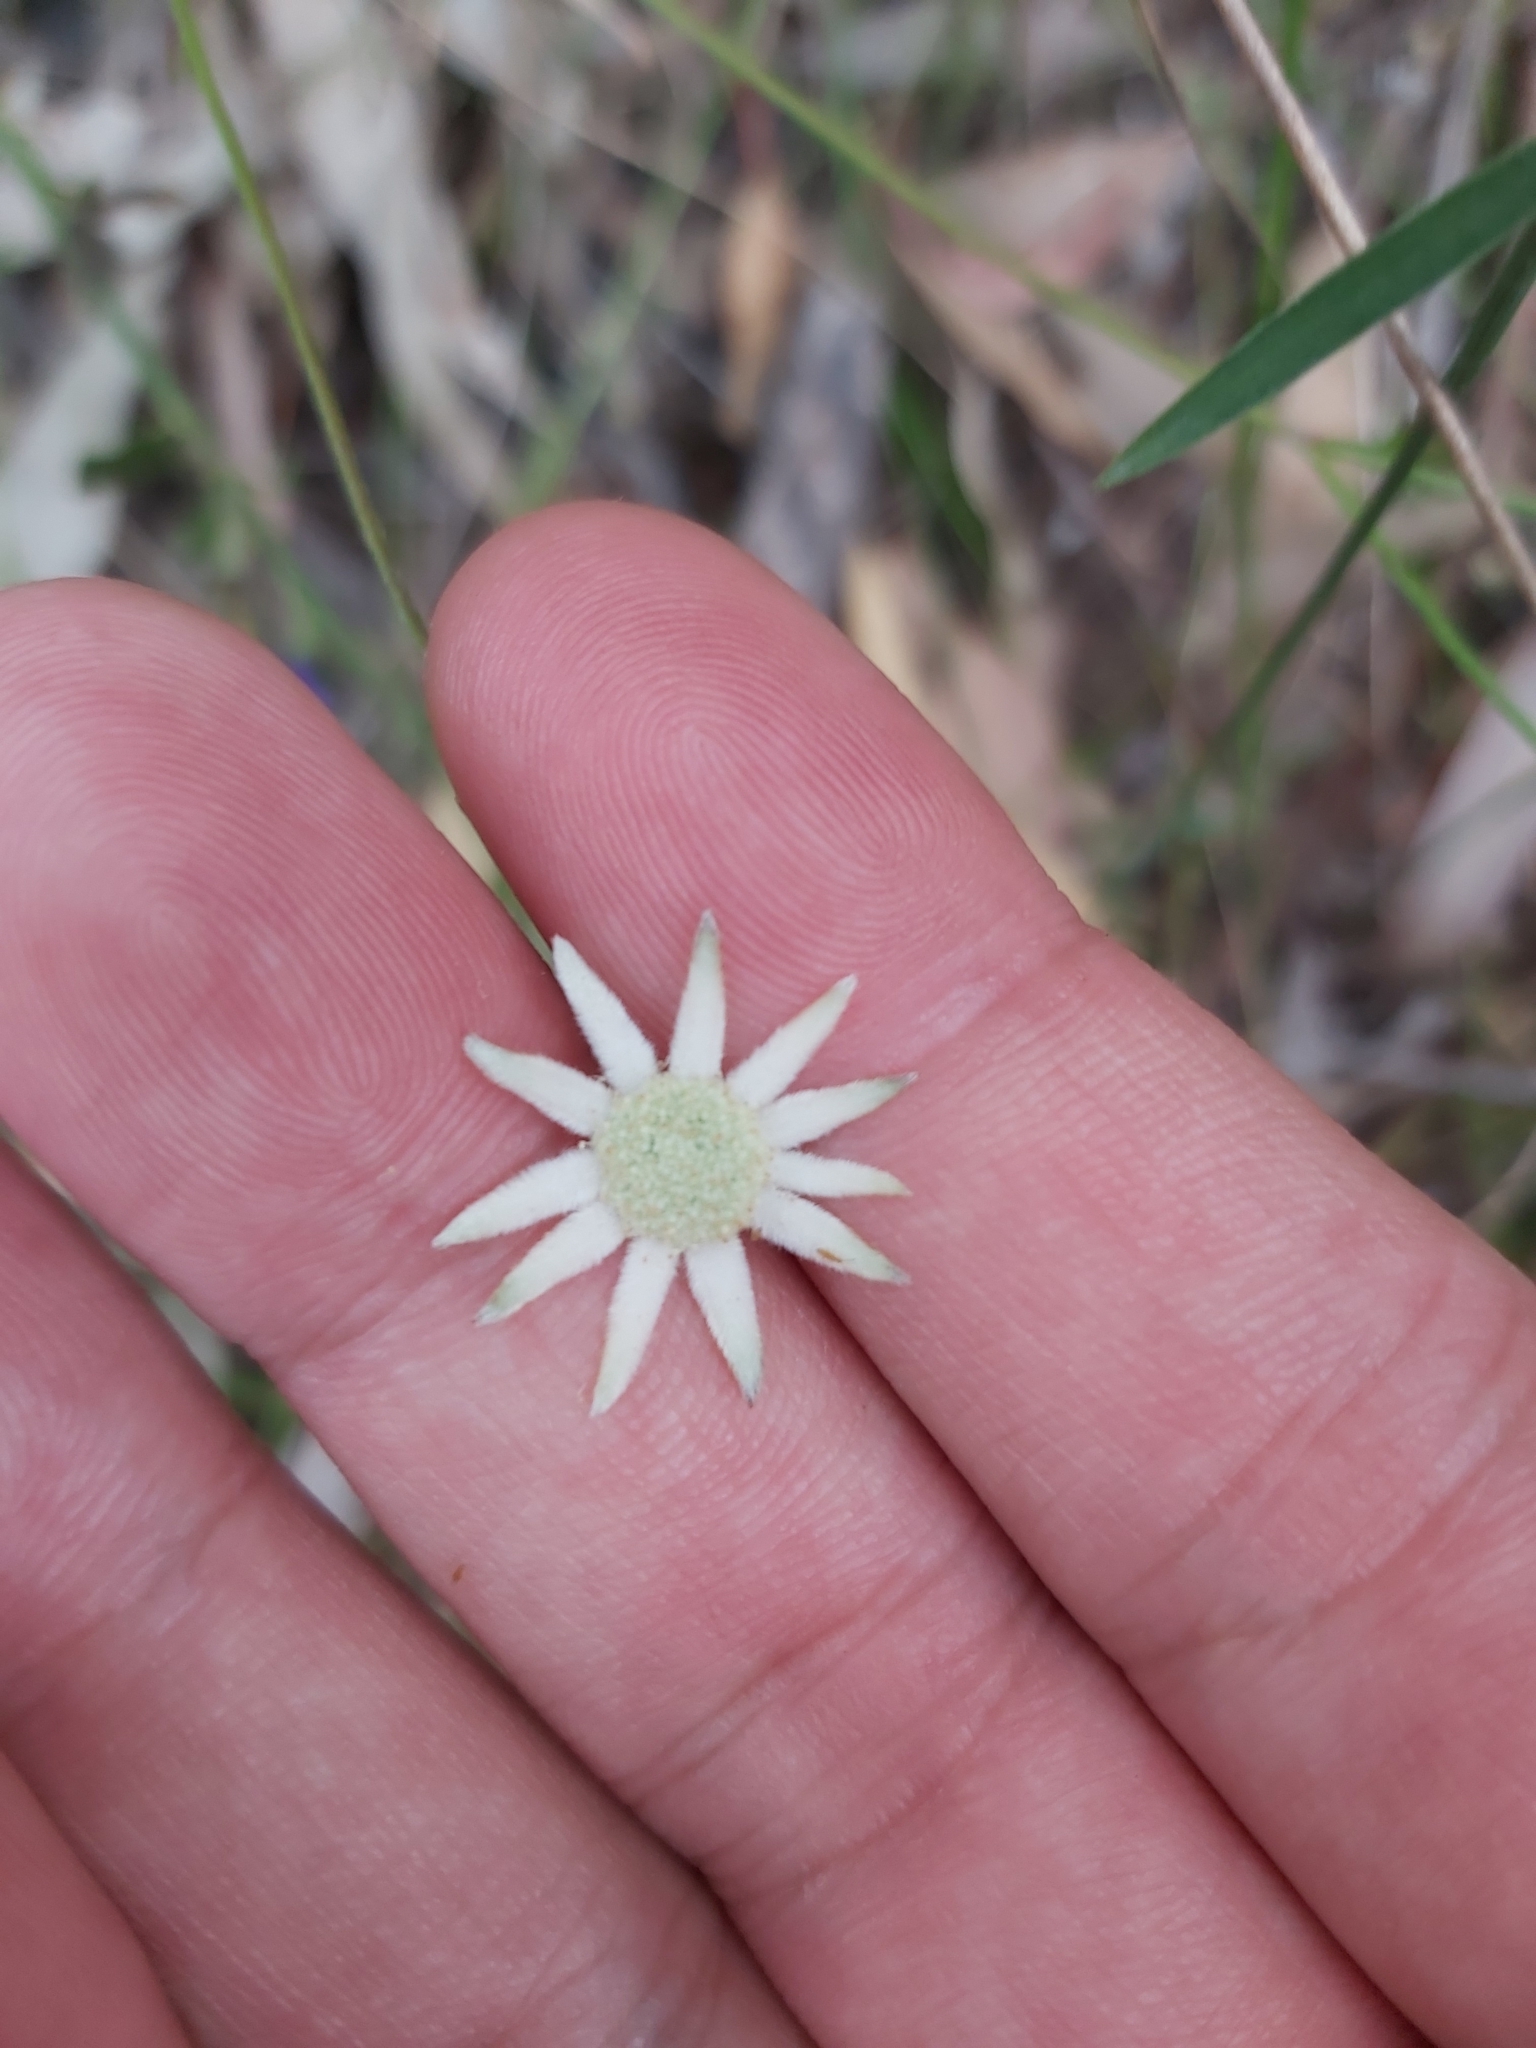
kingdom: Plantae
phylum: Tracheophyta
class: Magnoliopsida
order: Apiales
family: Apiaceae
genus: Actinotus
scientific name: Actinotus minor
